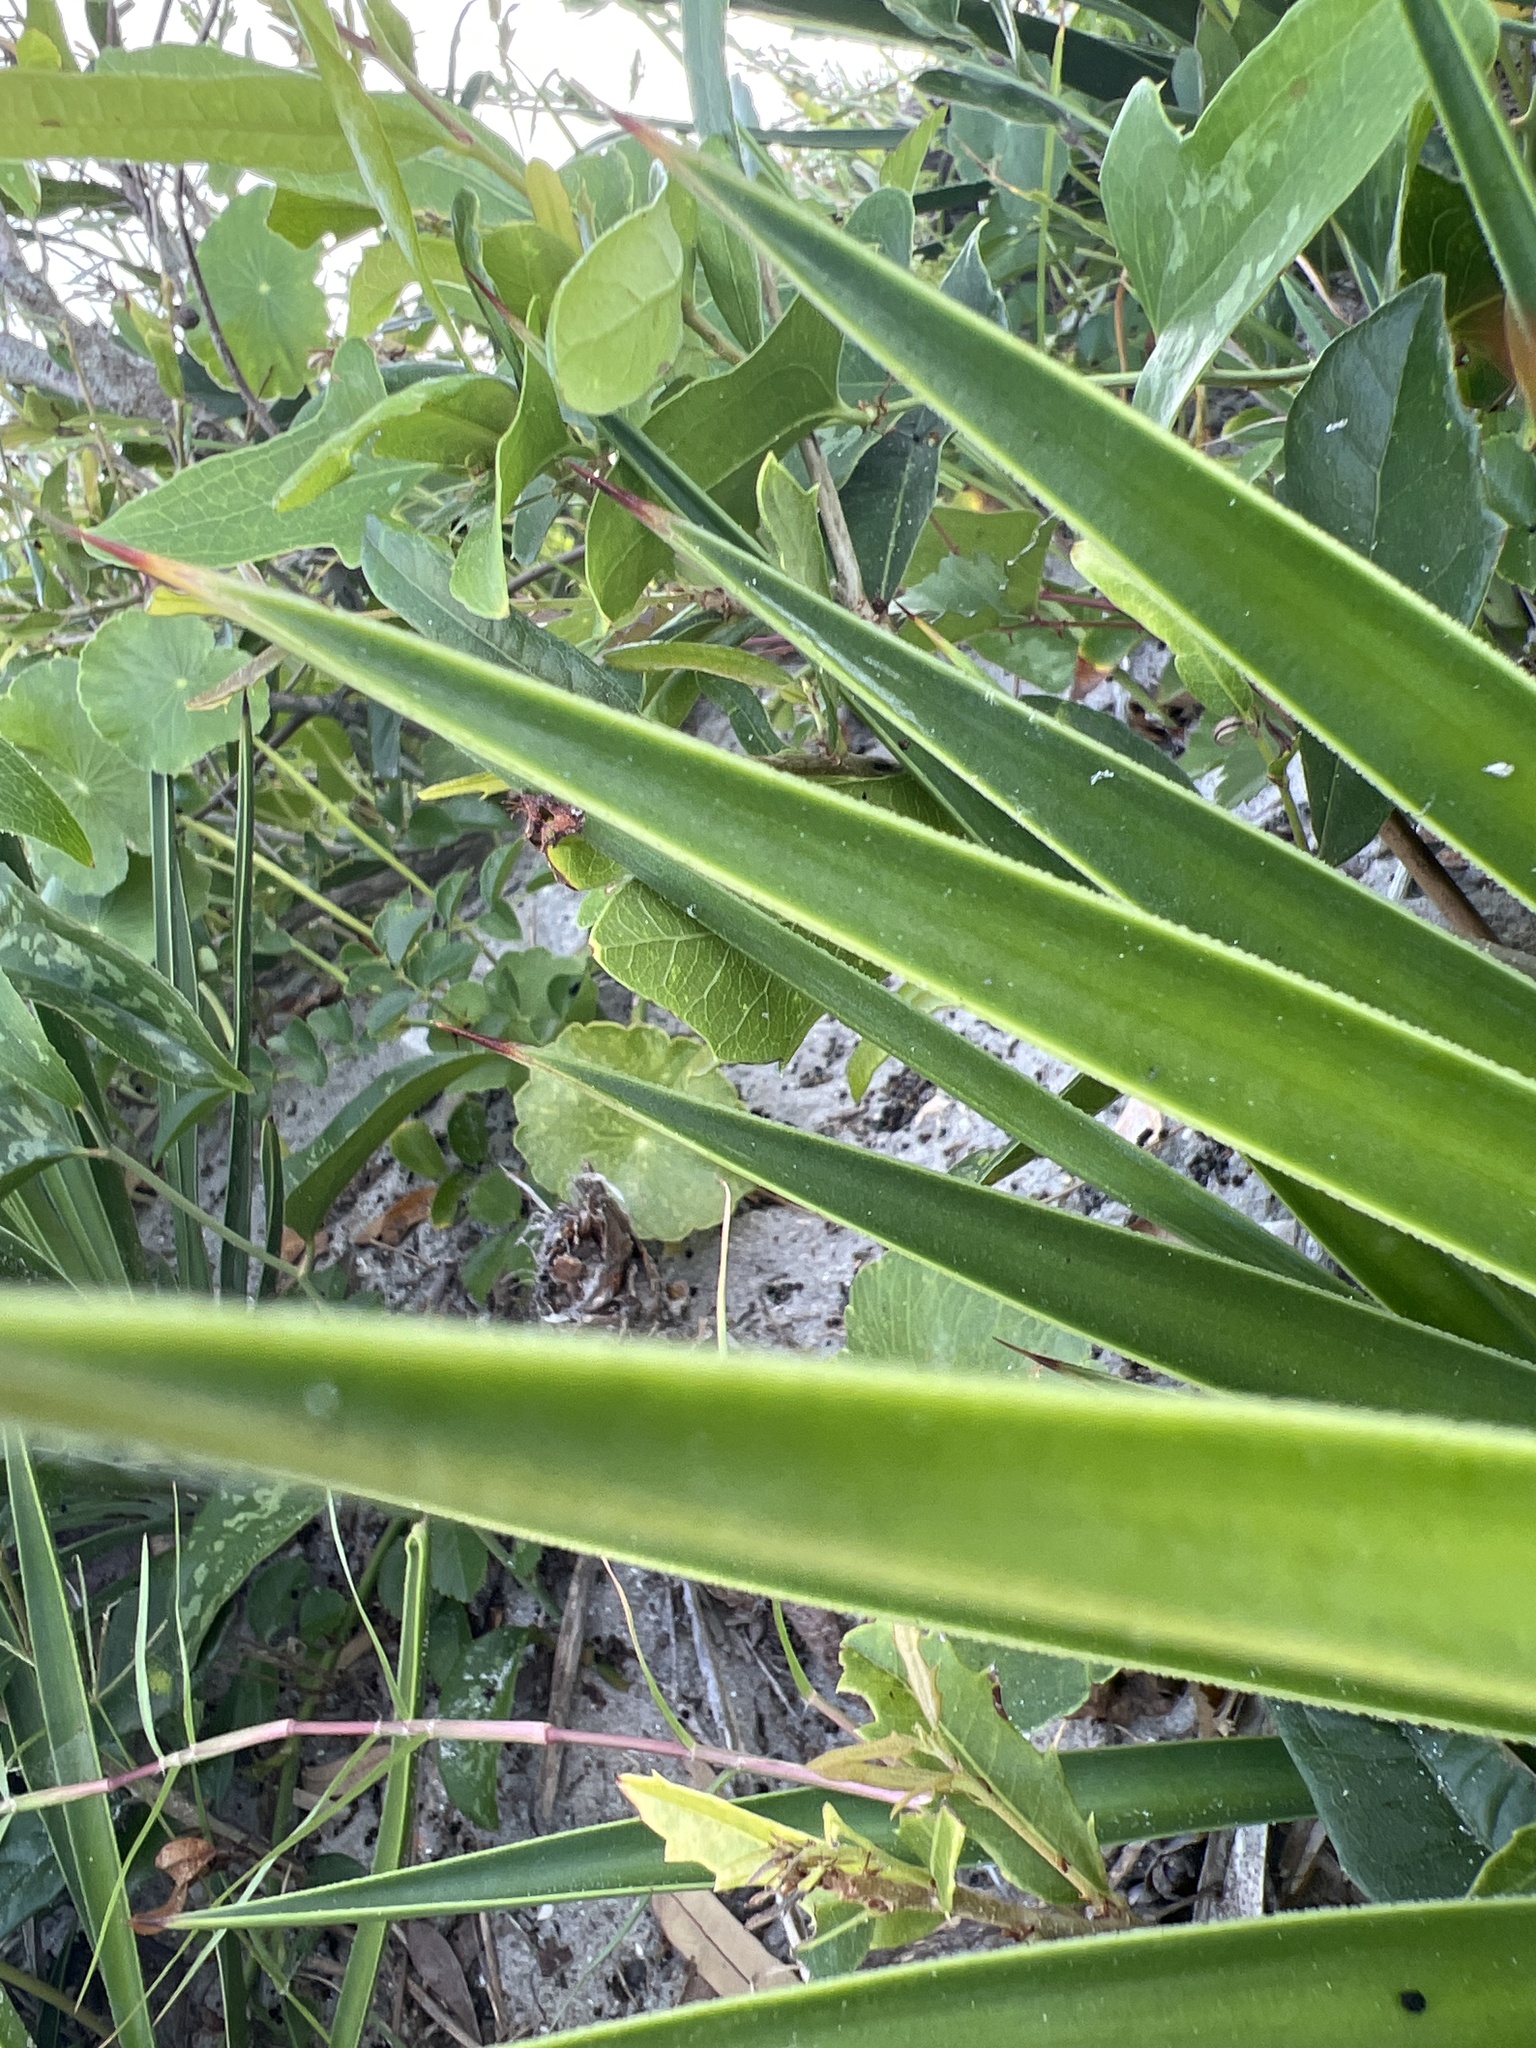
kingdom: Plantae
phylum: Tracheophyta
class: Liliopsida
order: Asparagales
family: Asparagaceae
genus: Yucca
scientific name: Yucca aloifolia
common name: Aloe yucca
